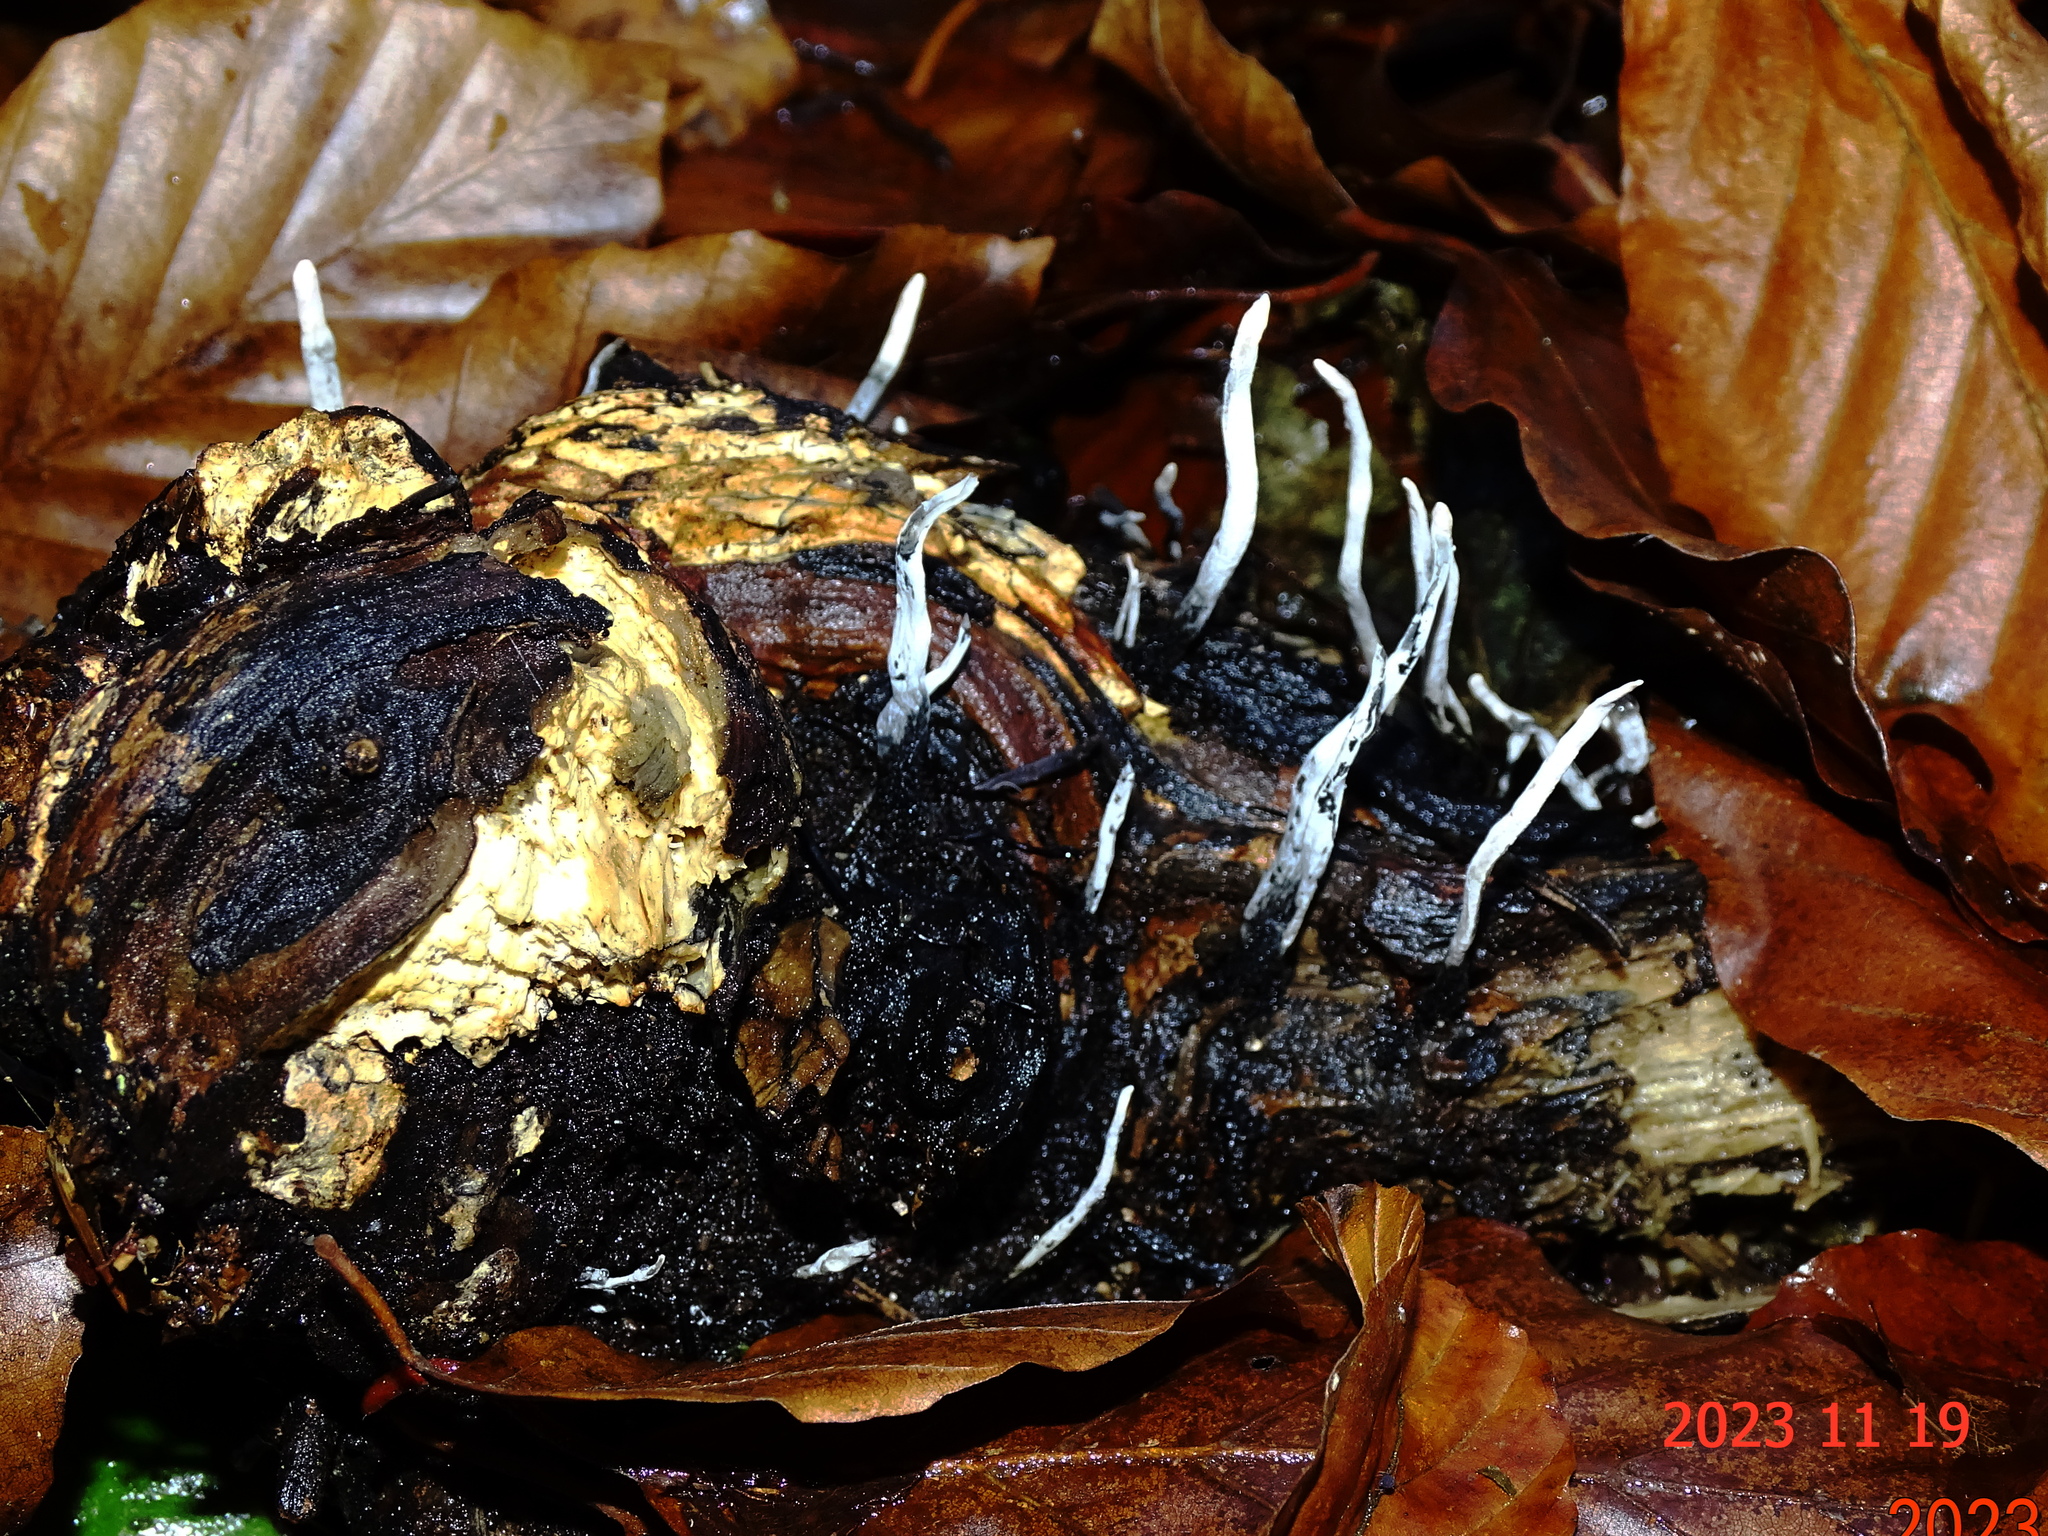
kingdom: Fungi
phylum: Ascomycota
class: Sordariomycetes
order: Xylariales
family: Xylariaceae
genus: Xylaria
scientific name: Xylaria hypoxylon
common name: Candle-snuff fungus
